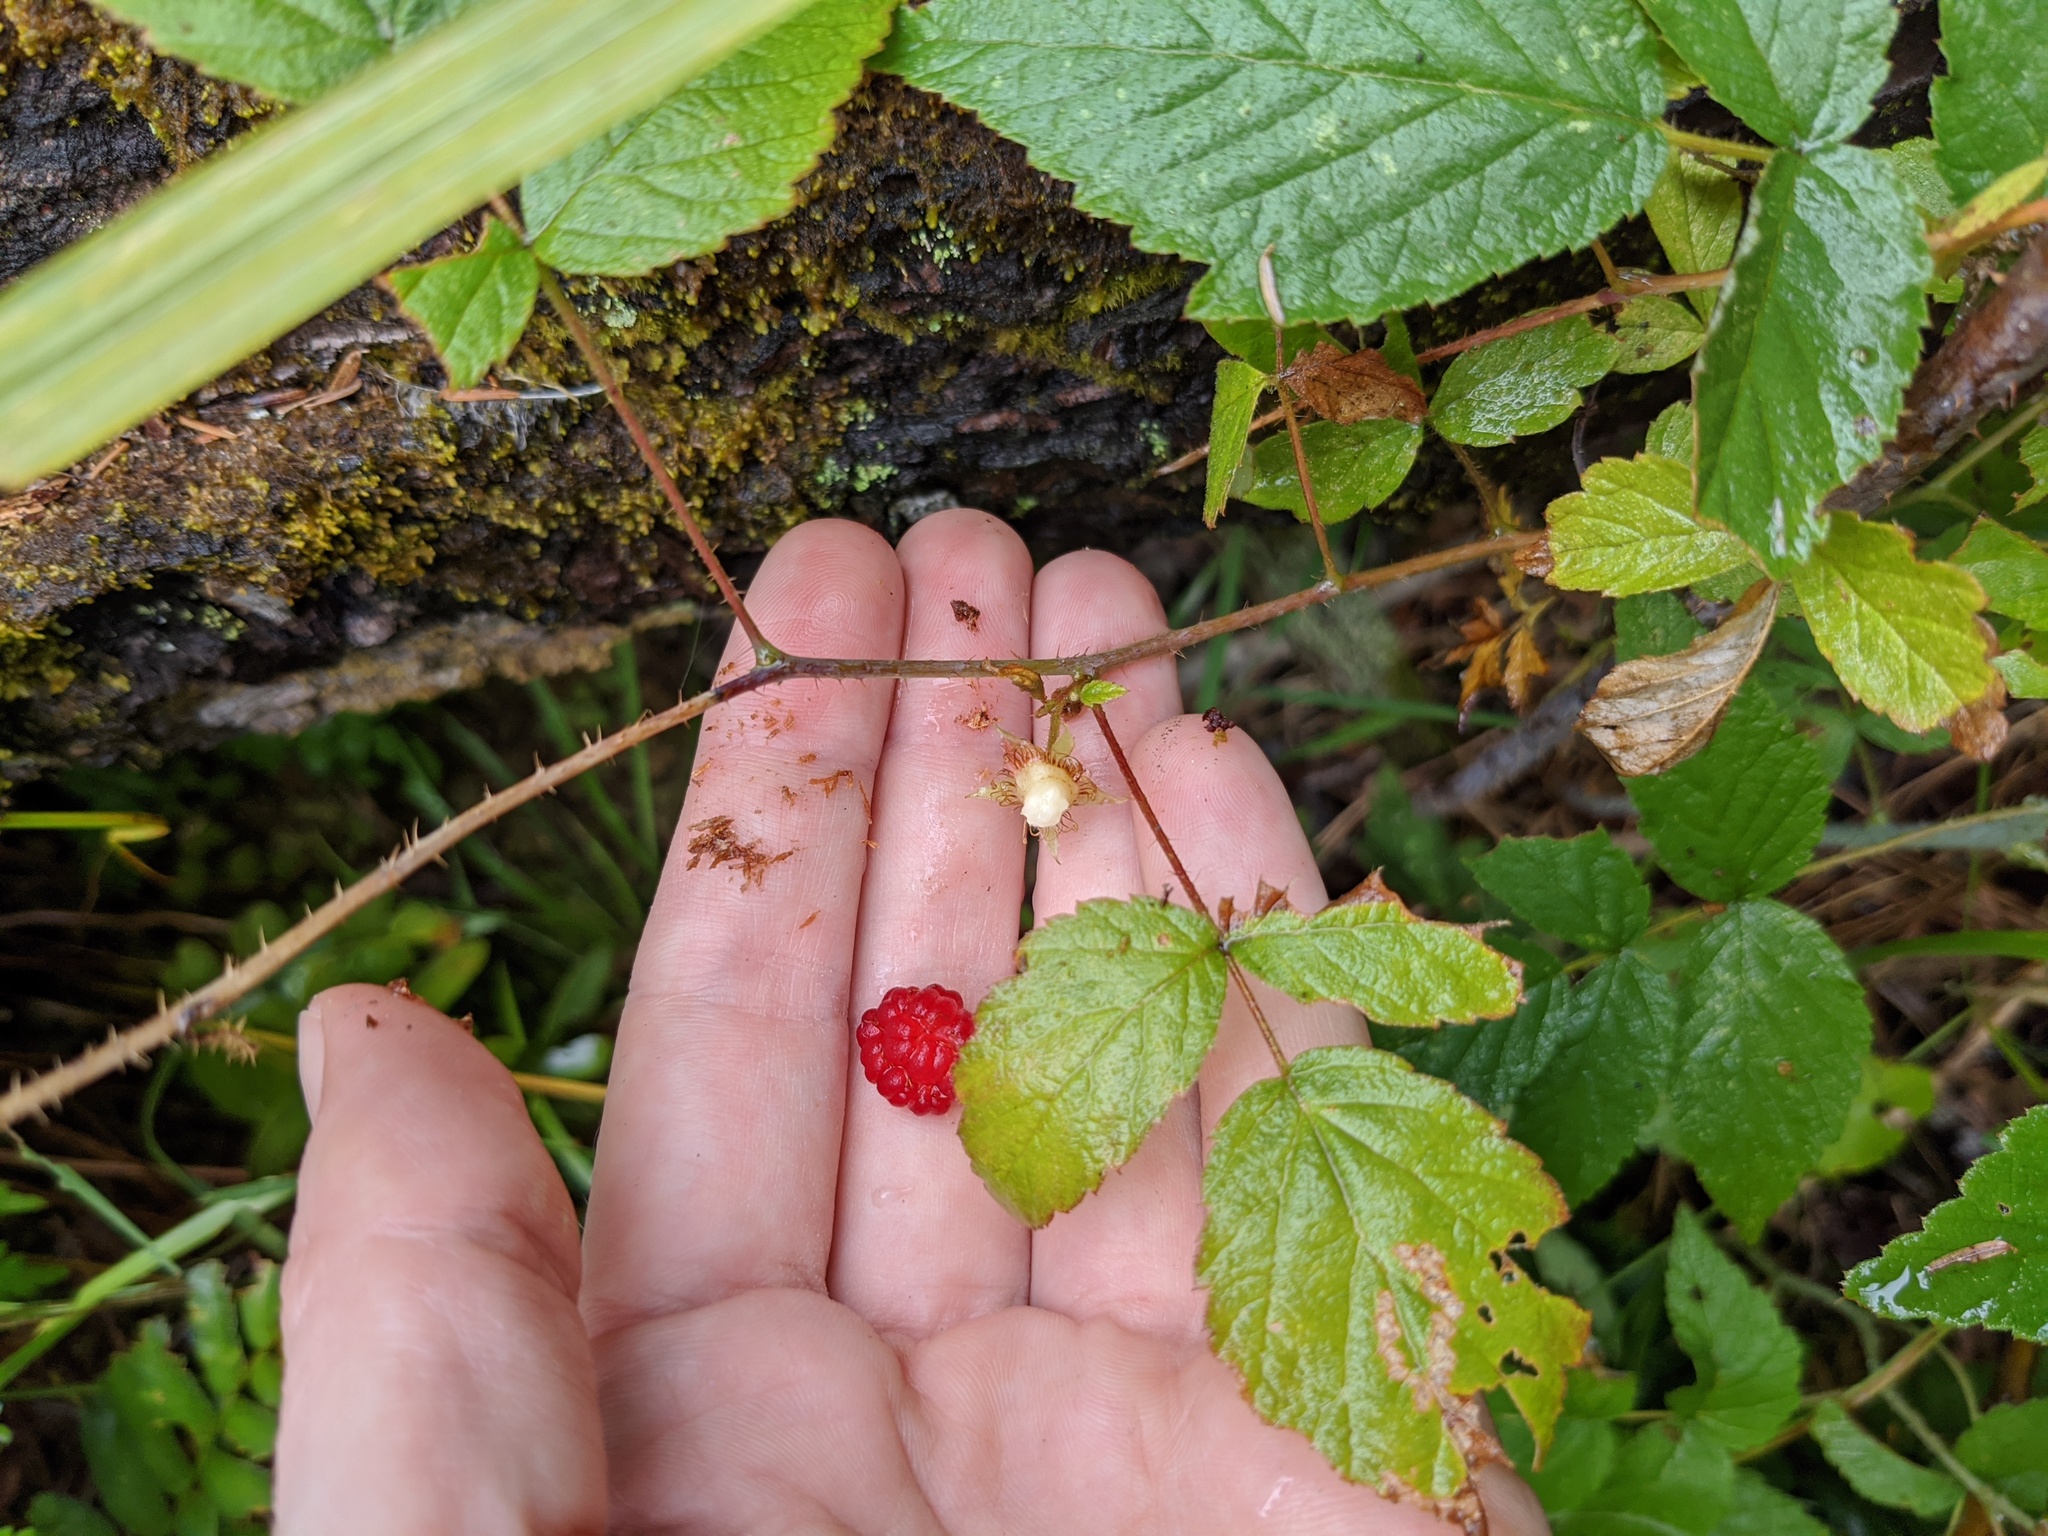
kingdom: Plantae
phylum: Tracheophyta
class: Magnoliopsida
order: Rosales
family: Rosaceae
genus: Rubus
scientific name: Rubus idaeus
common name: Raspberry
